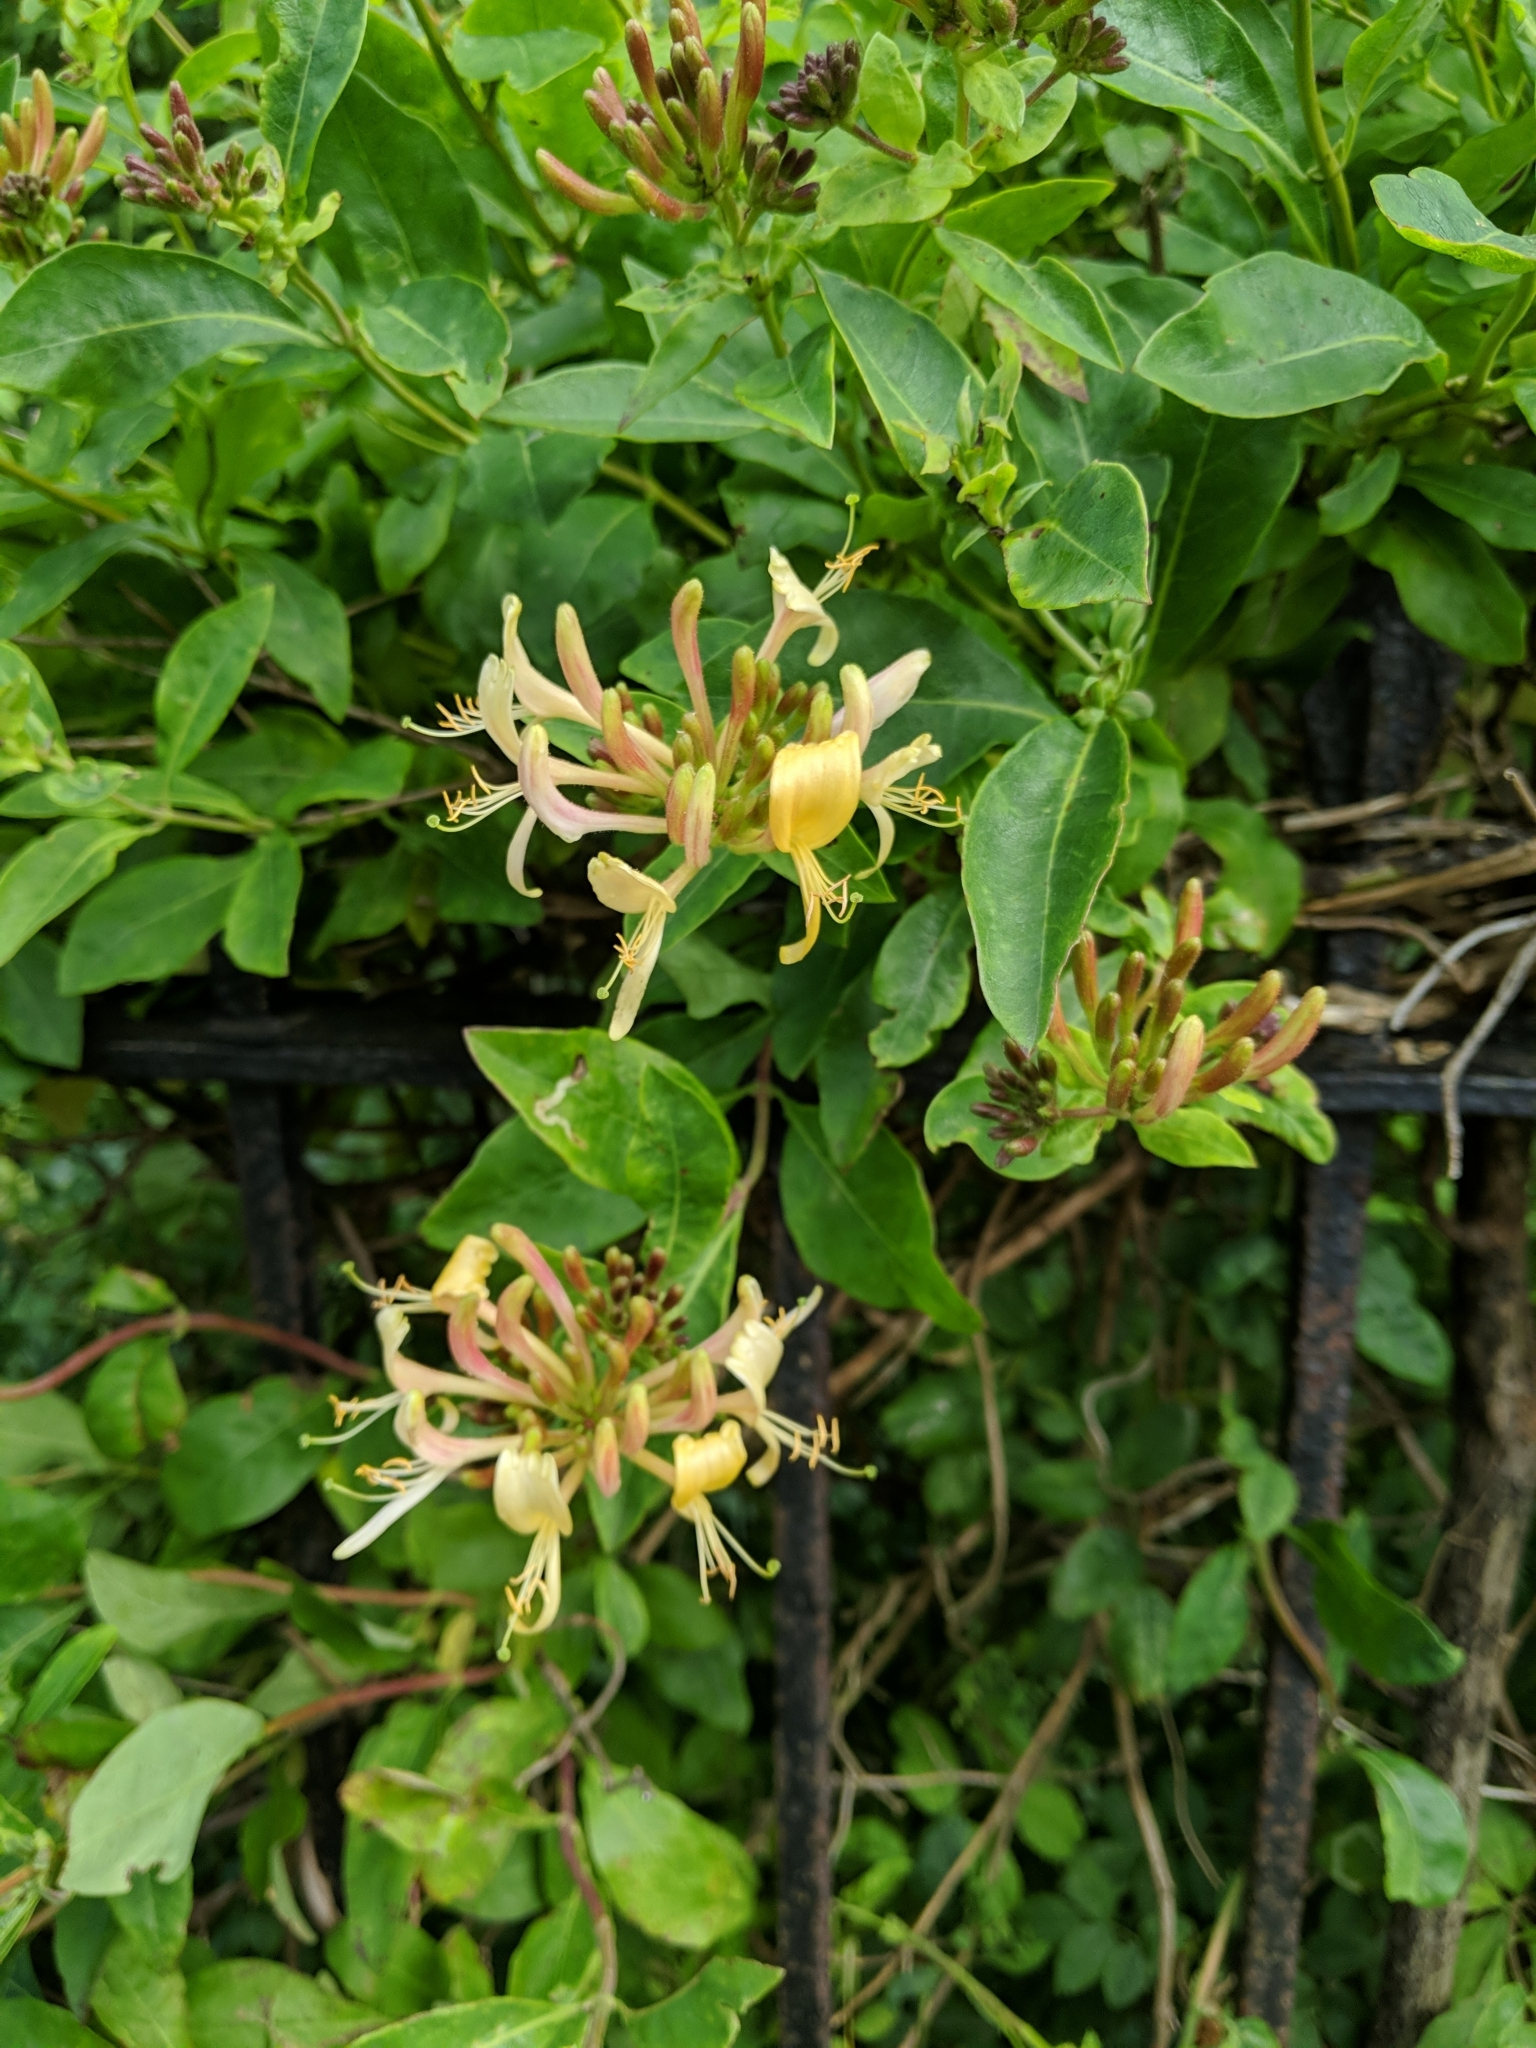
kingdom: Plantae
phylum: Tracheophyta
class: Magnoliopsida
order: Dipsacales
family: Caprifoliaceae
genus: Lonicera
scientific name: Lonicera periclymenum
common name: European honeysuckle
